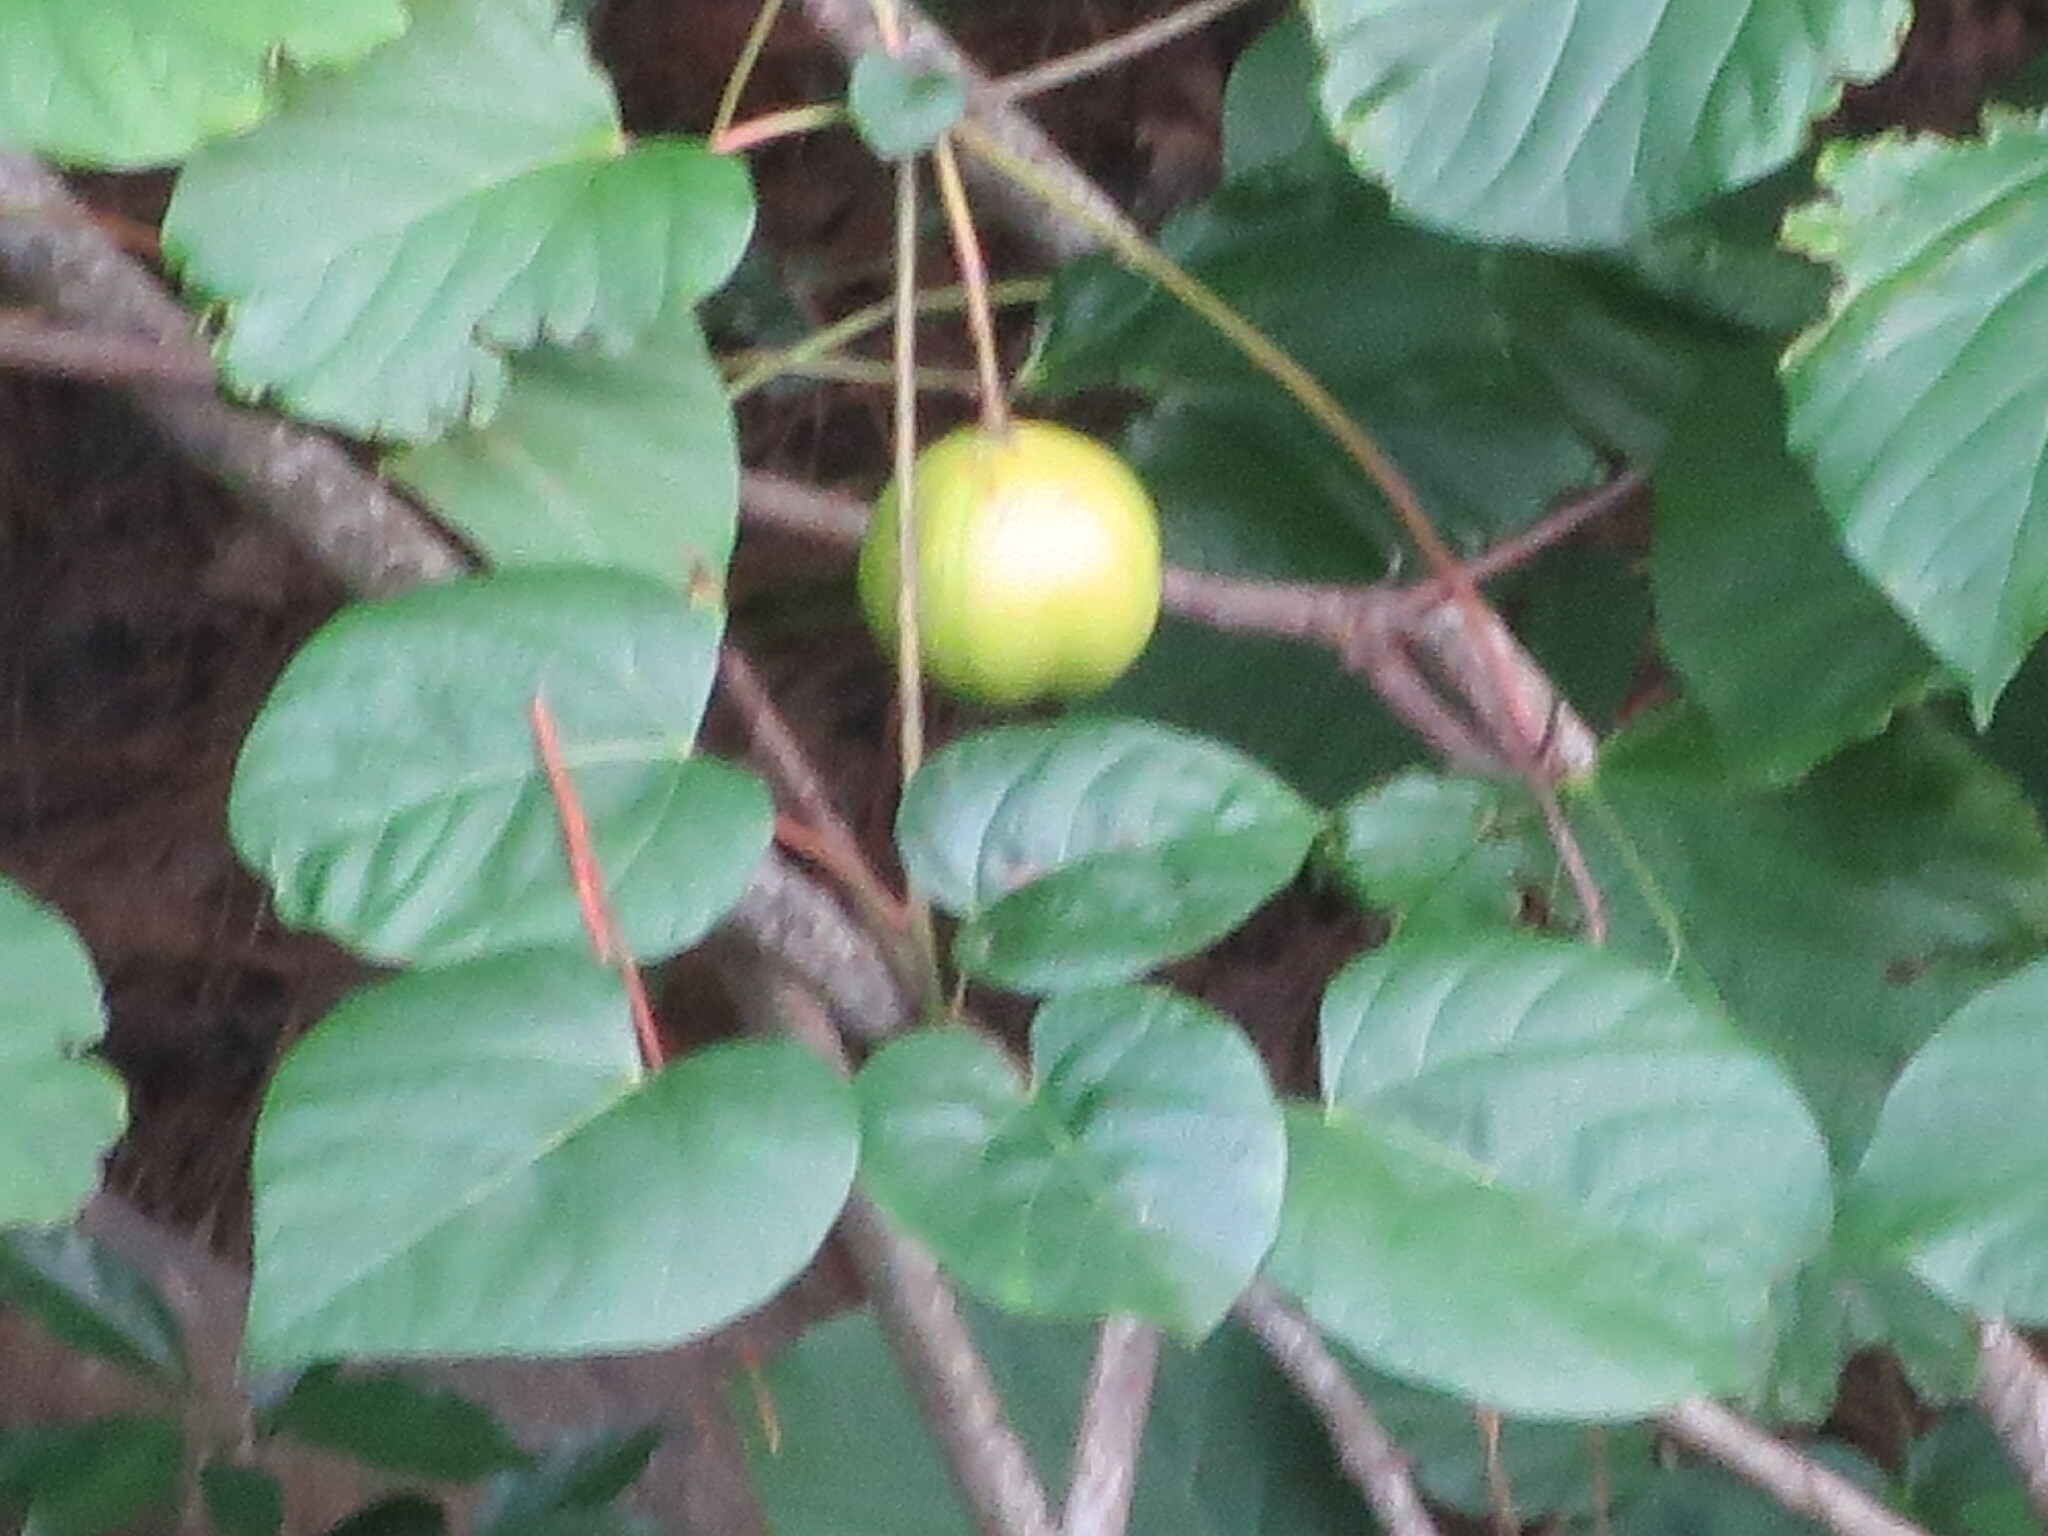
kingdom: Plantae
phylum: Tracheophyta
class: Magnoliopsida
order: Malpighiales
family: Euphorbiaceae
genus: Vernicia
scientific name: Vernicia fordii
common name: Tungoil tree
